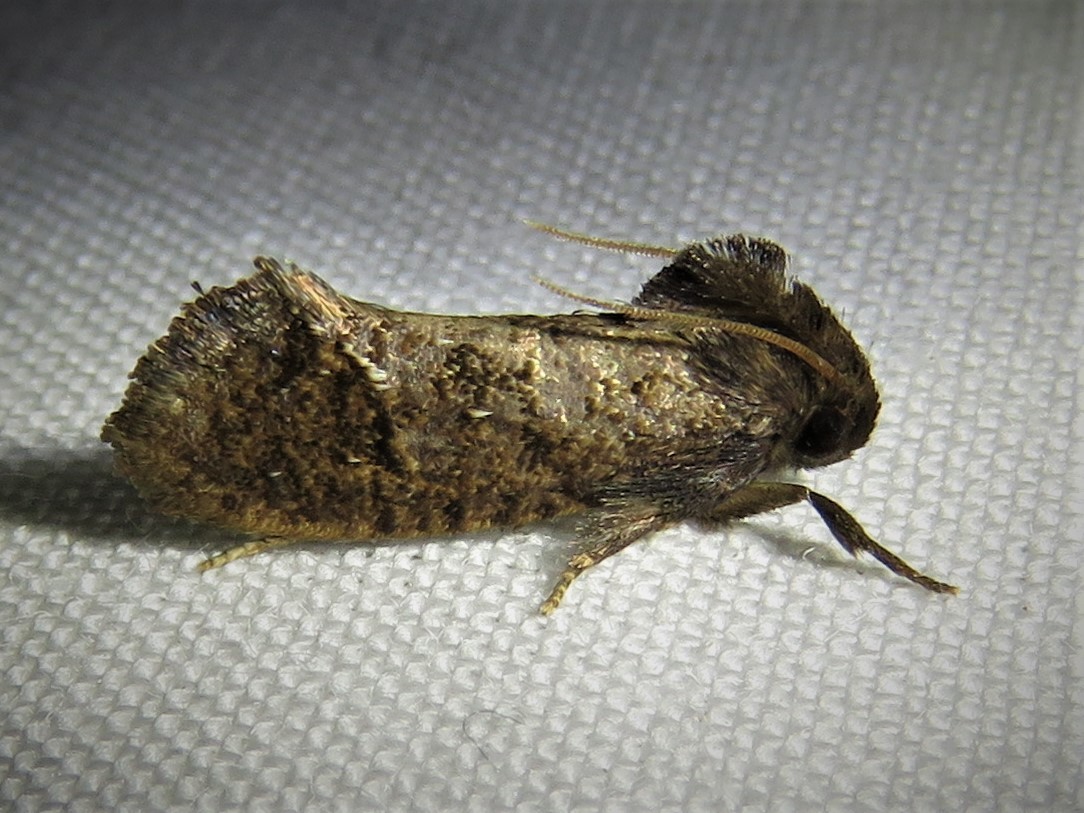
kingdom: Animalia
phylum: Arthropoda
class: Insecta
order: Lepidoptera
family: Tineidae
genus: Acrolophus
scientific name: Acrolophus texanella
